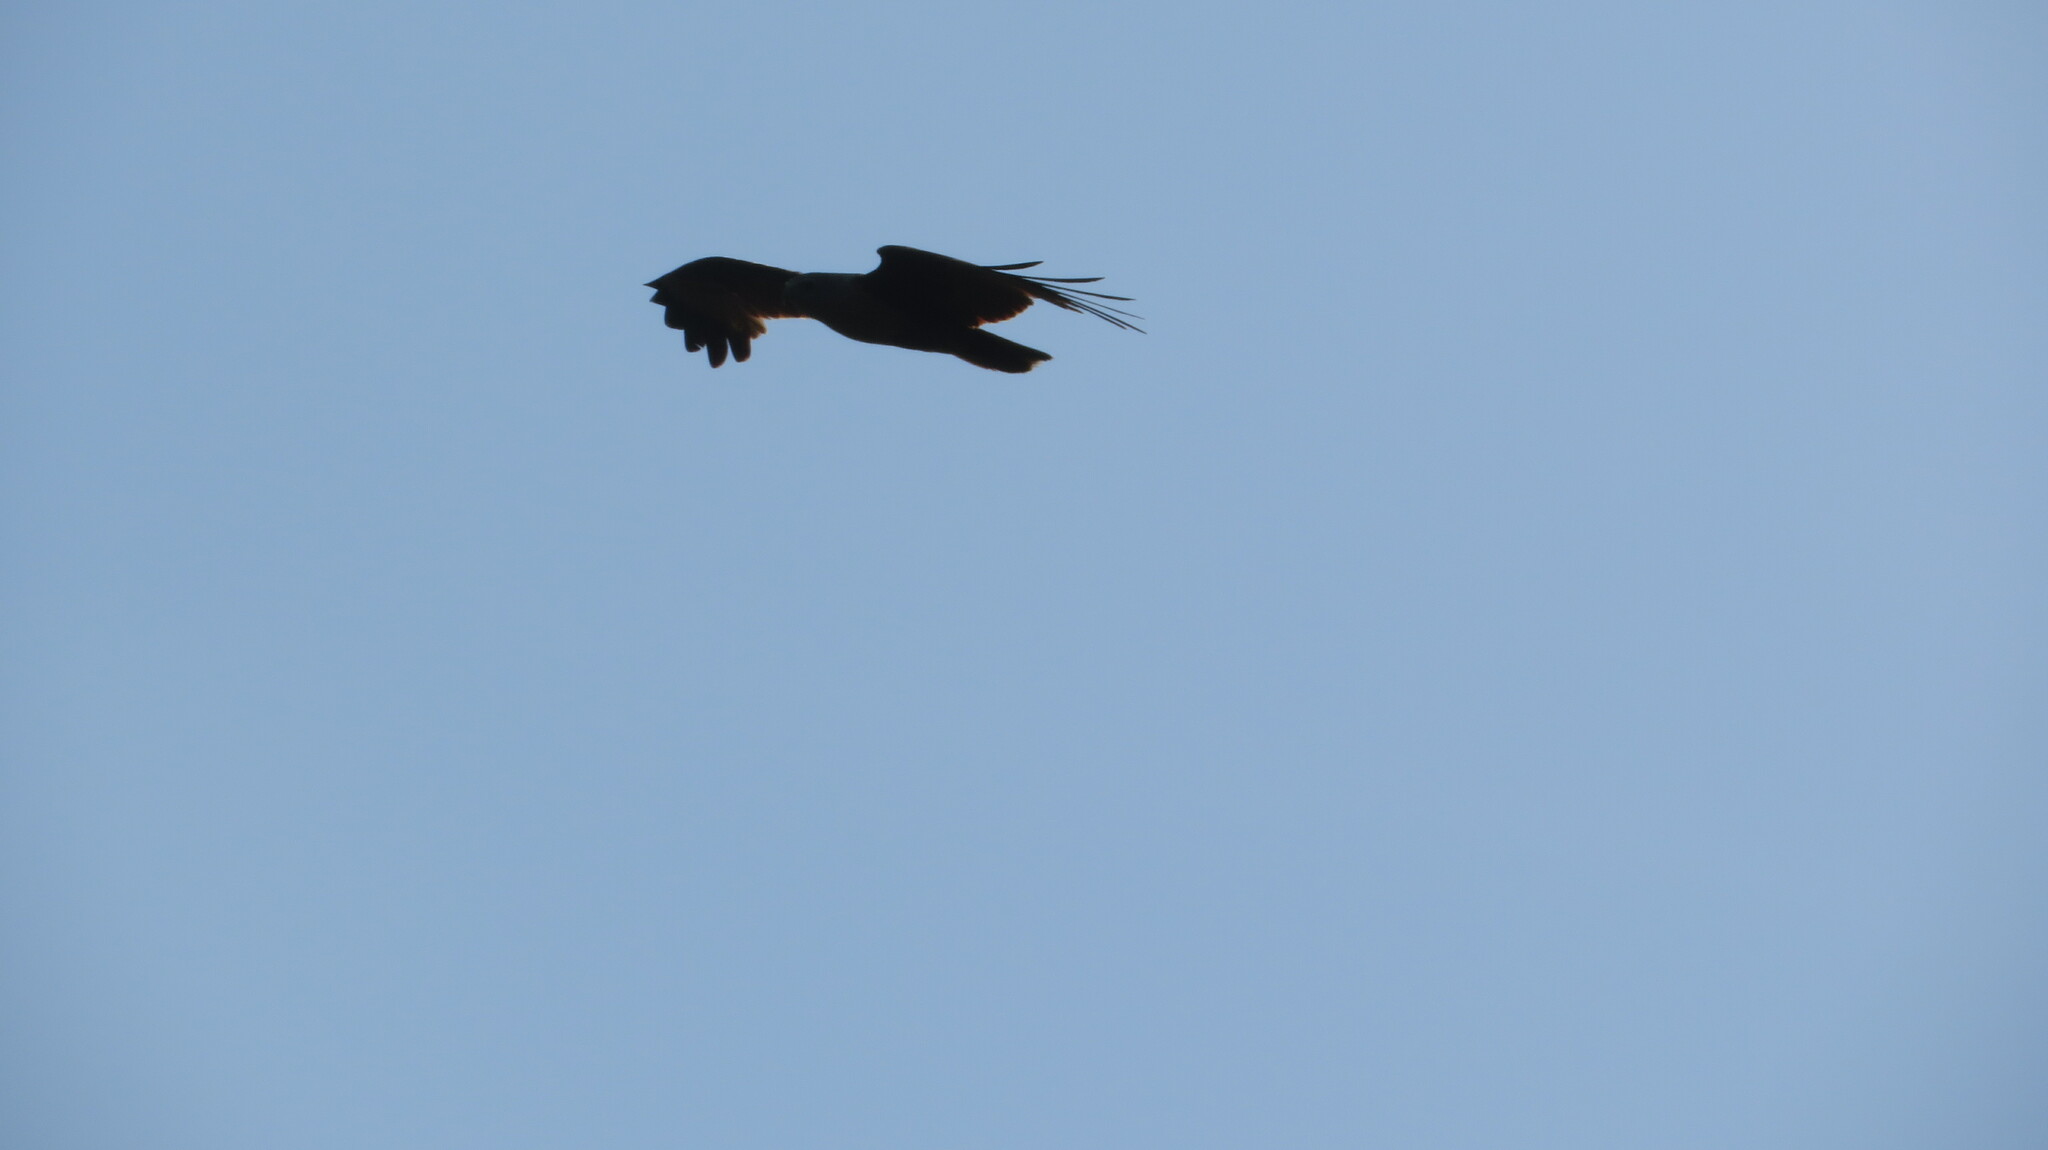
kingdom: Animalia
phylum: Chordata
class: Aves
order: Accipitriformes
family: Accipitridae
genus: Haliastur
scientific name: Haliastur indus
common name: Brahminy kite
